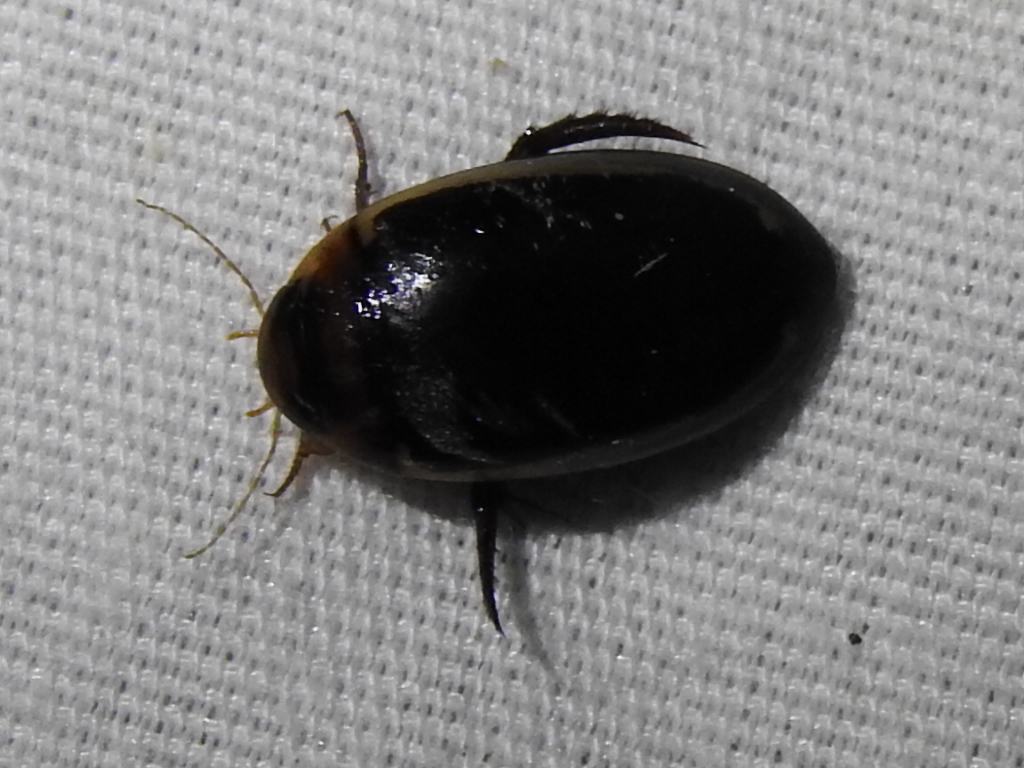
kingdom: Animalia
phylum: Arthropoda
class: Insecta
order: Coleoptera
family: Dytiscidae
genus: Hydaticus
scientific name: Hydaticus bimarginatus
